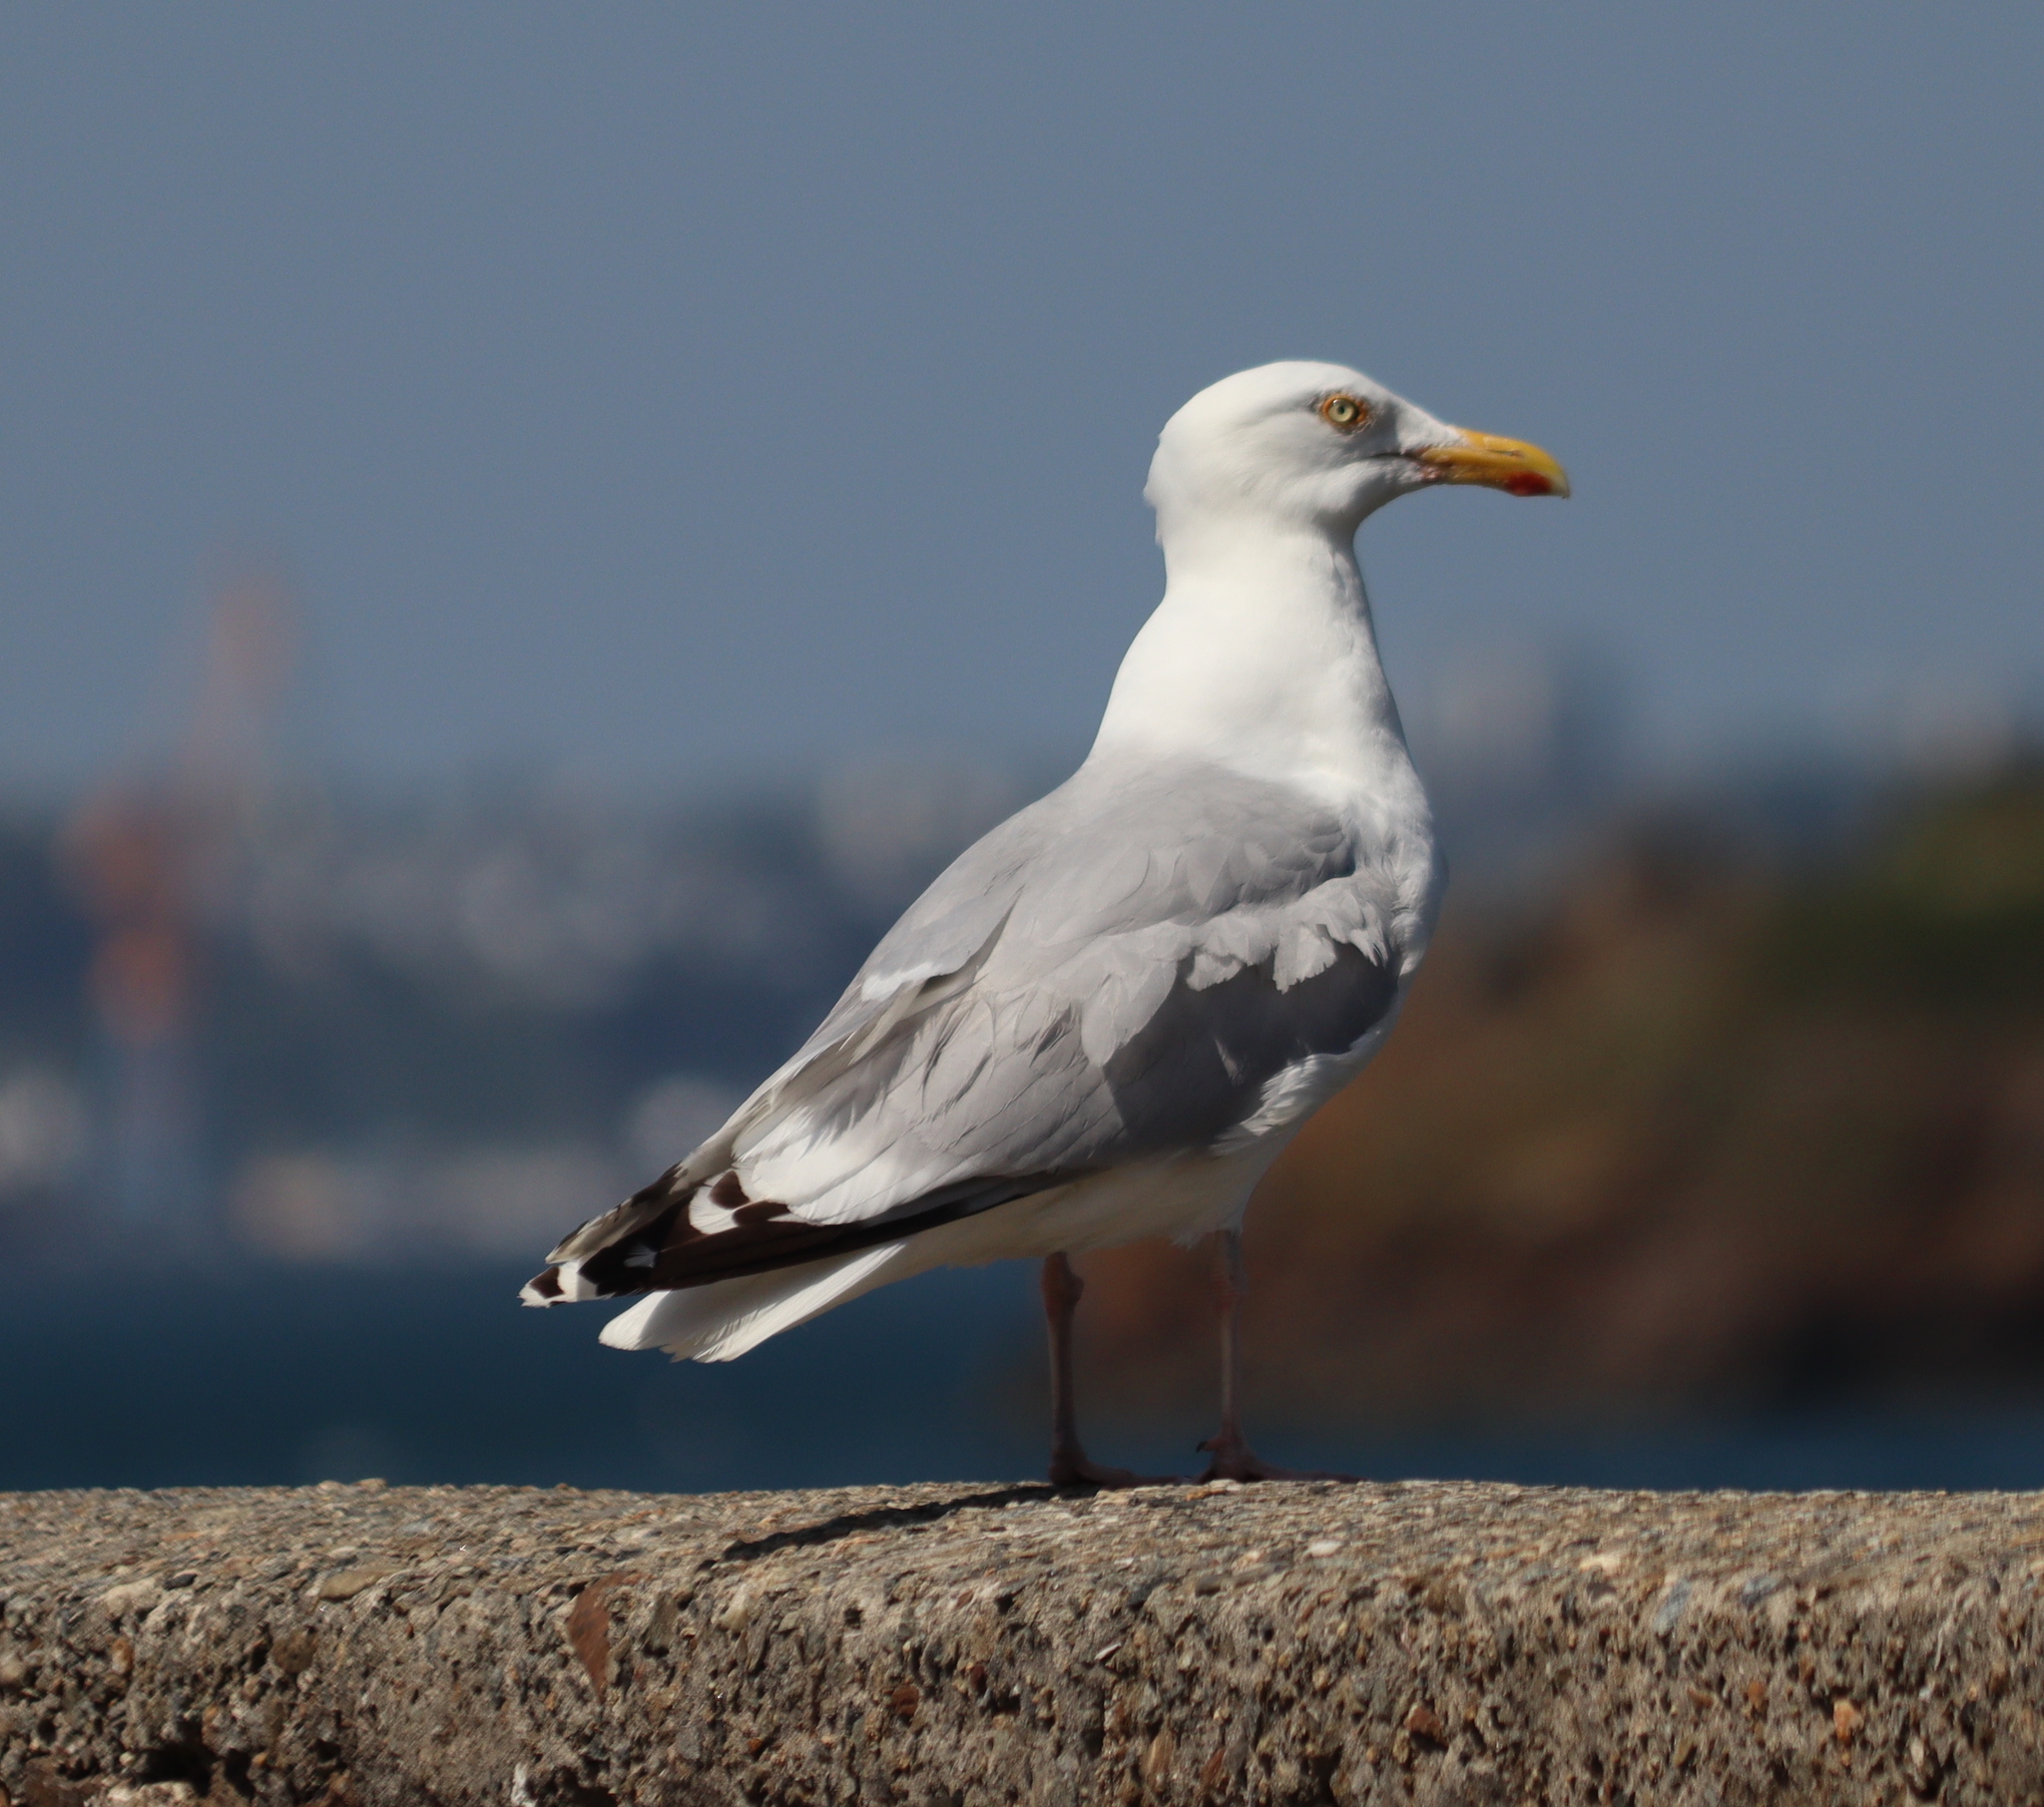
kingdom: Animalia
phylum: Chordata
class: Aves
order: Charadriiformes
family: Laridae
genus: Larus
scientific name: Larus argentatus
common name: Herring gull
